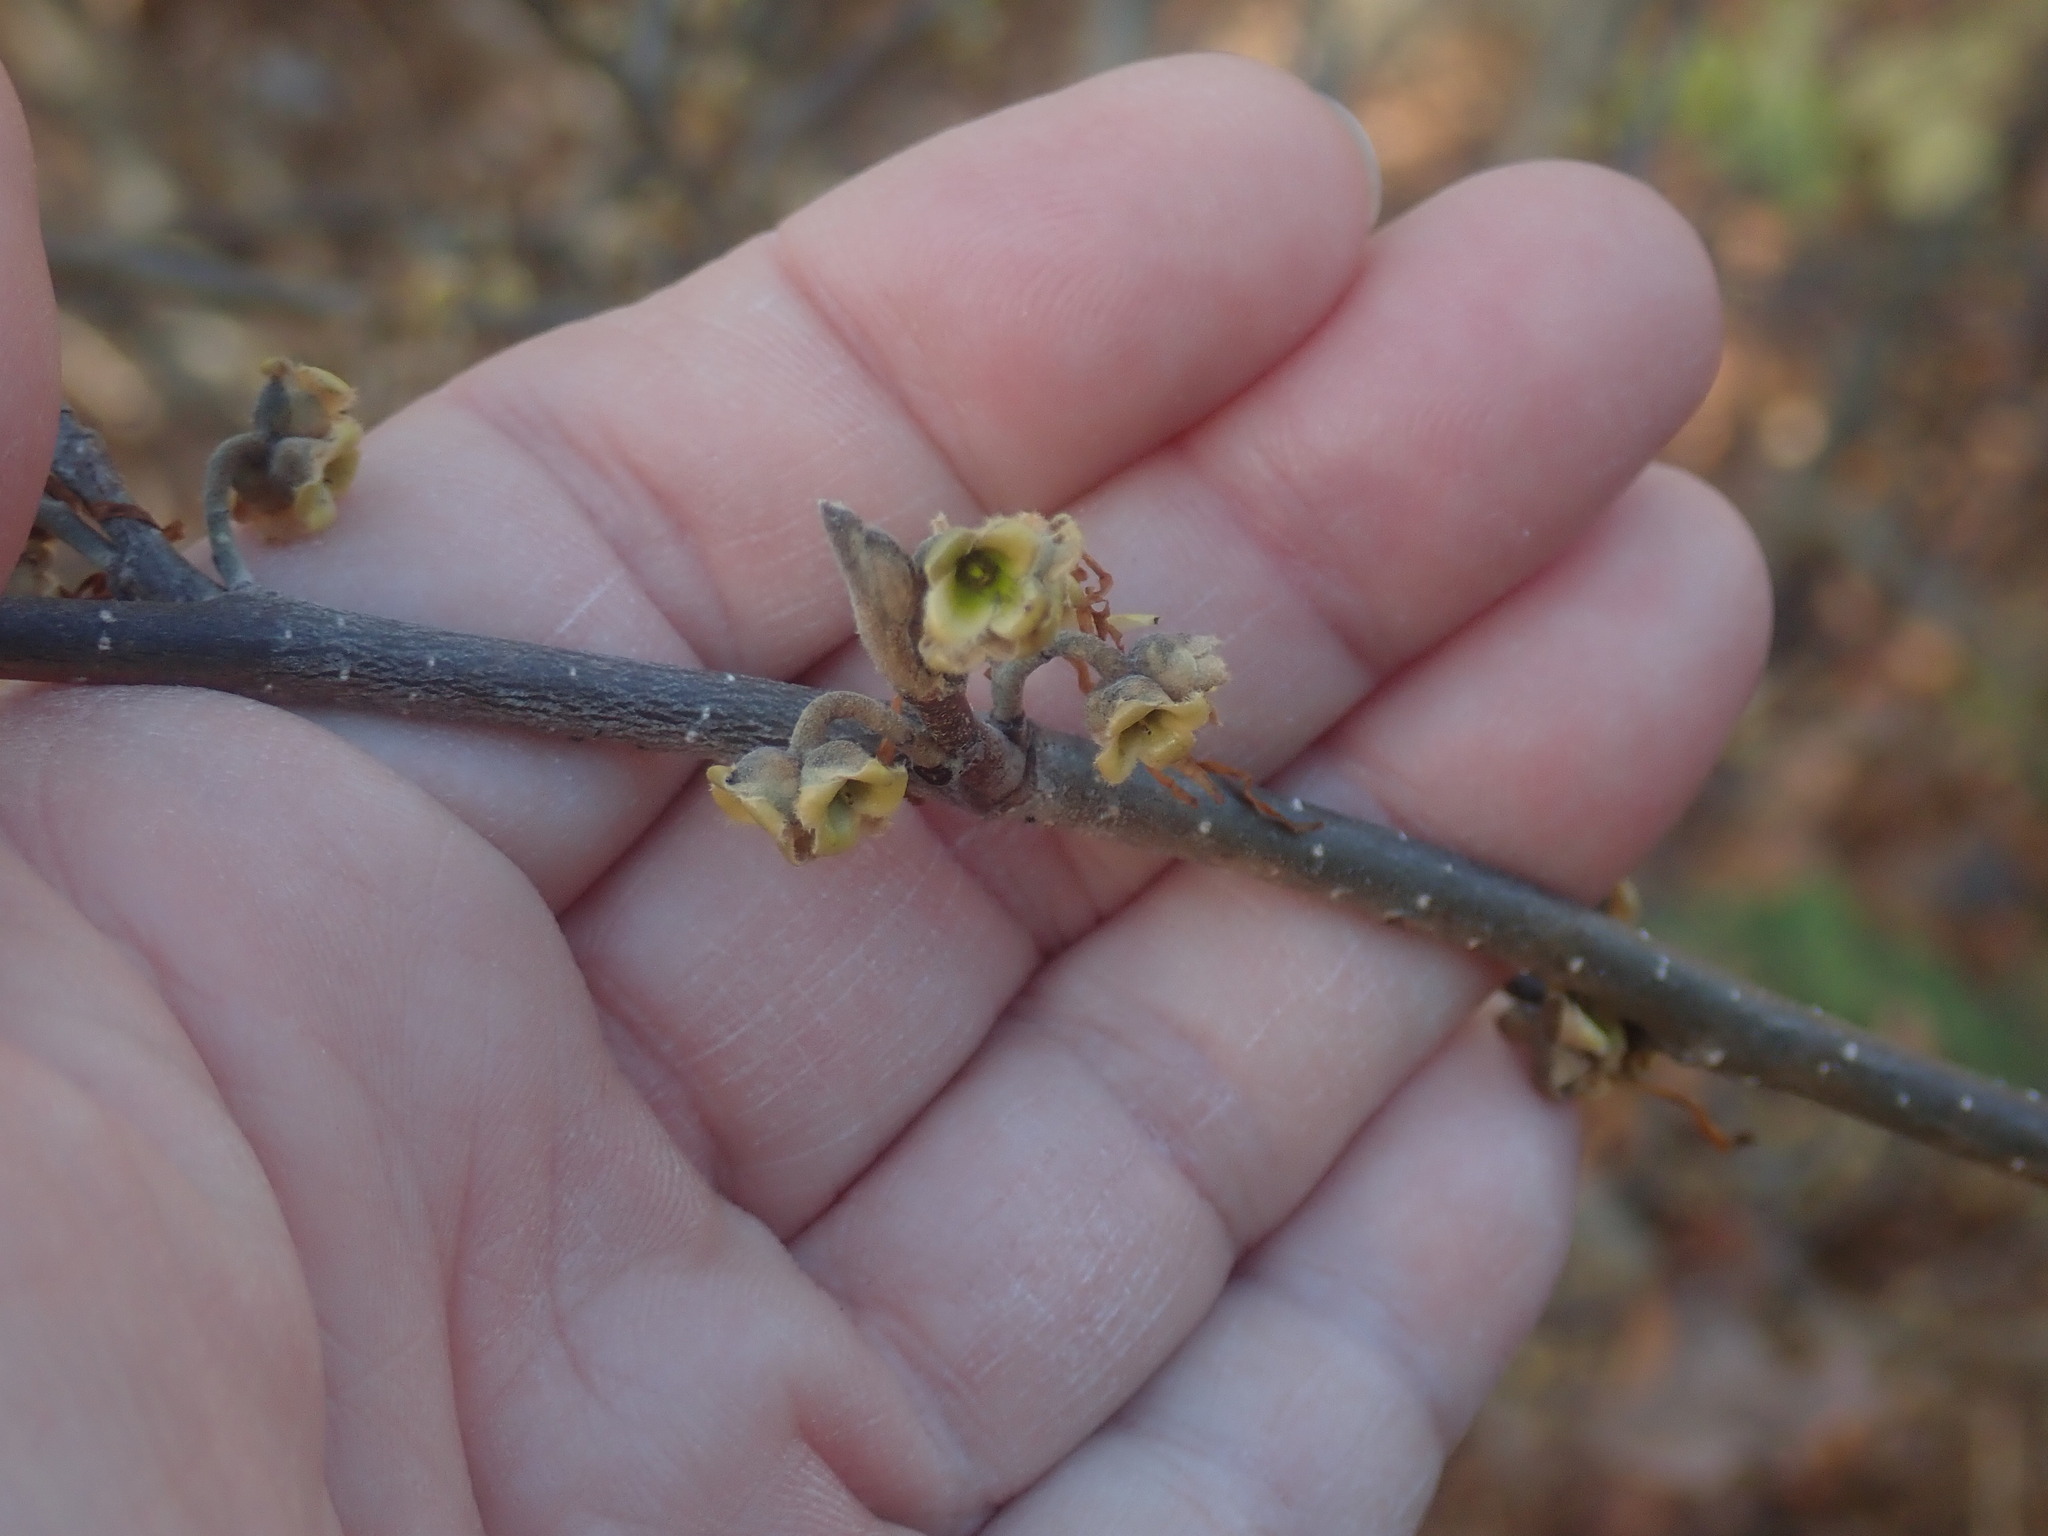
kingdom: Plantae
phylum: Tracheophyta
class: Magnoliopsida
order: Saxifragales
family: Hamamelidaceae
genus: Hamamelis
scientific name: Hamamelis virginiana
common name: Witch-hazel
